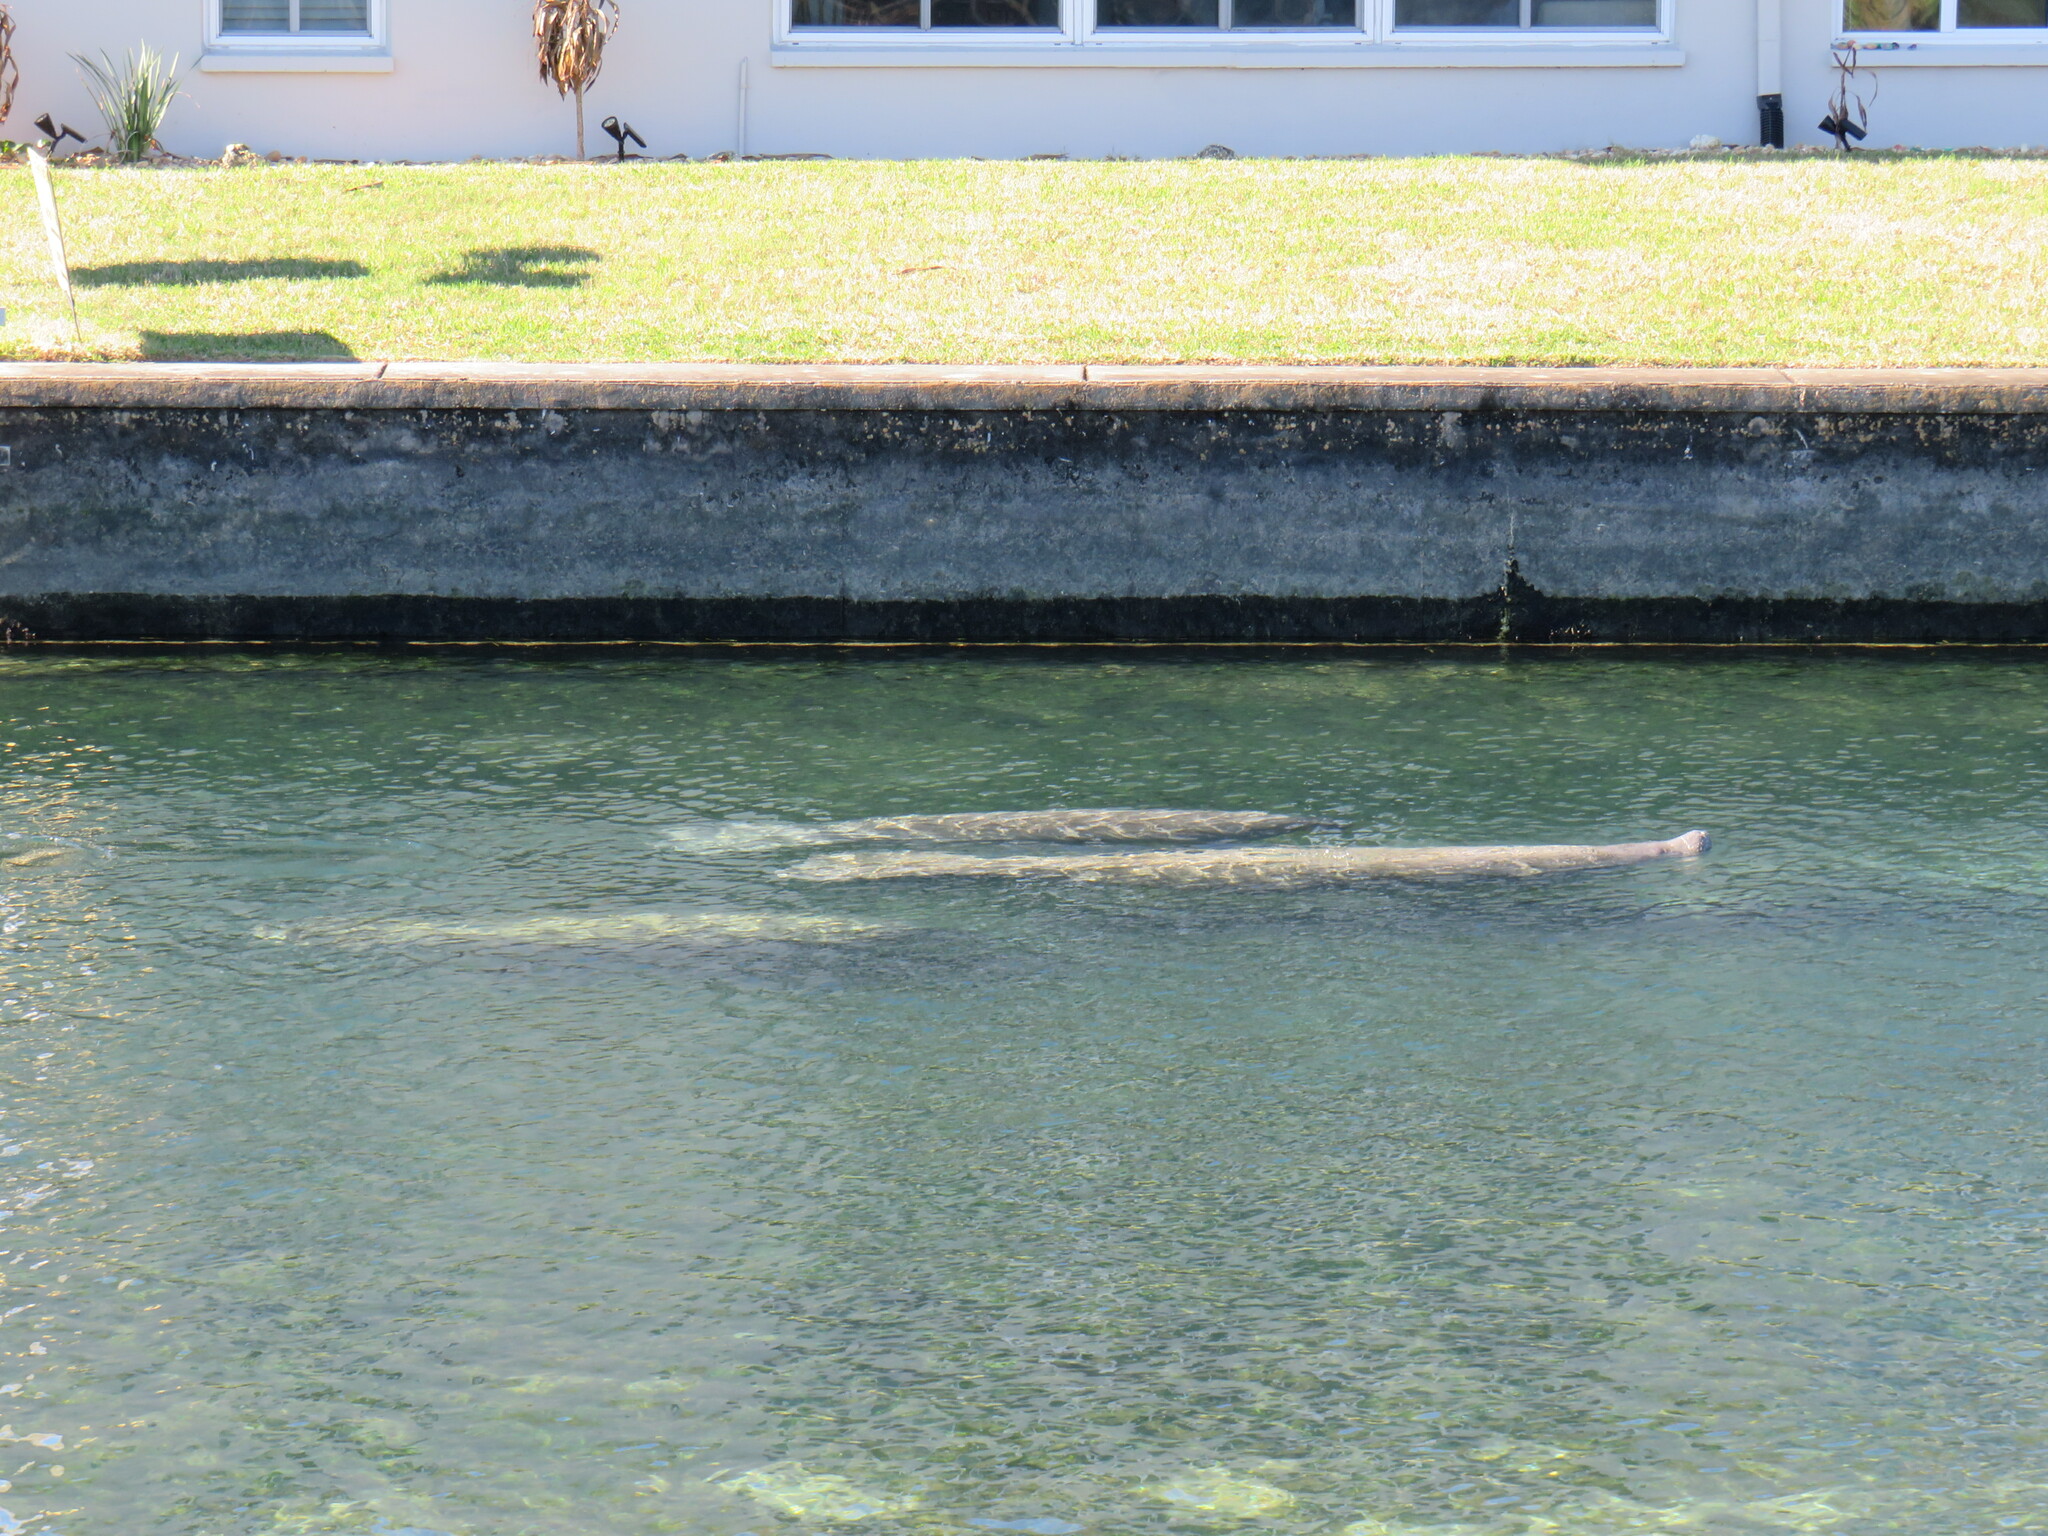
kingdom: Animalia
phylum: Chordata
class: Mammalia
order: Sirenia
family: Trichechidae
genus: Trichechus
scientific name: Trichechus manatus
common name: West indian manatee
